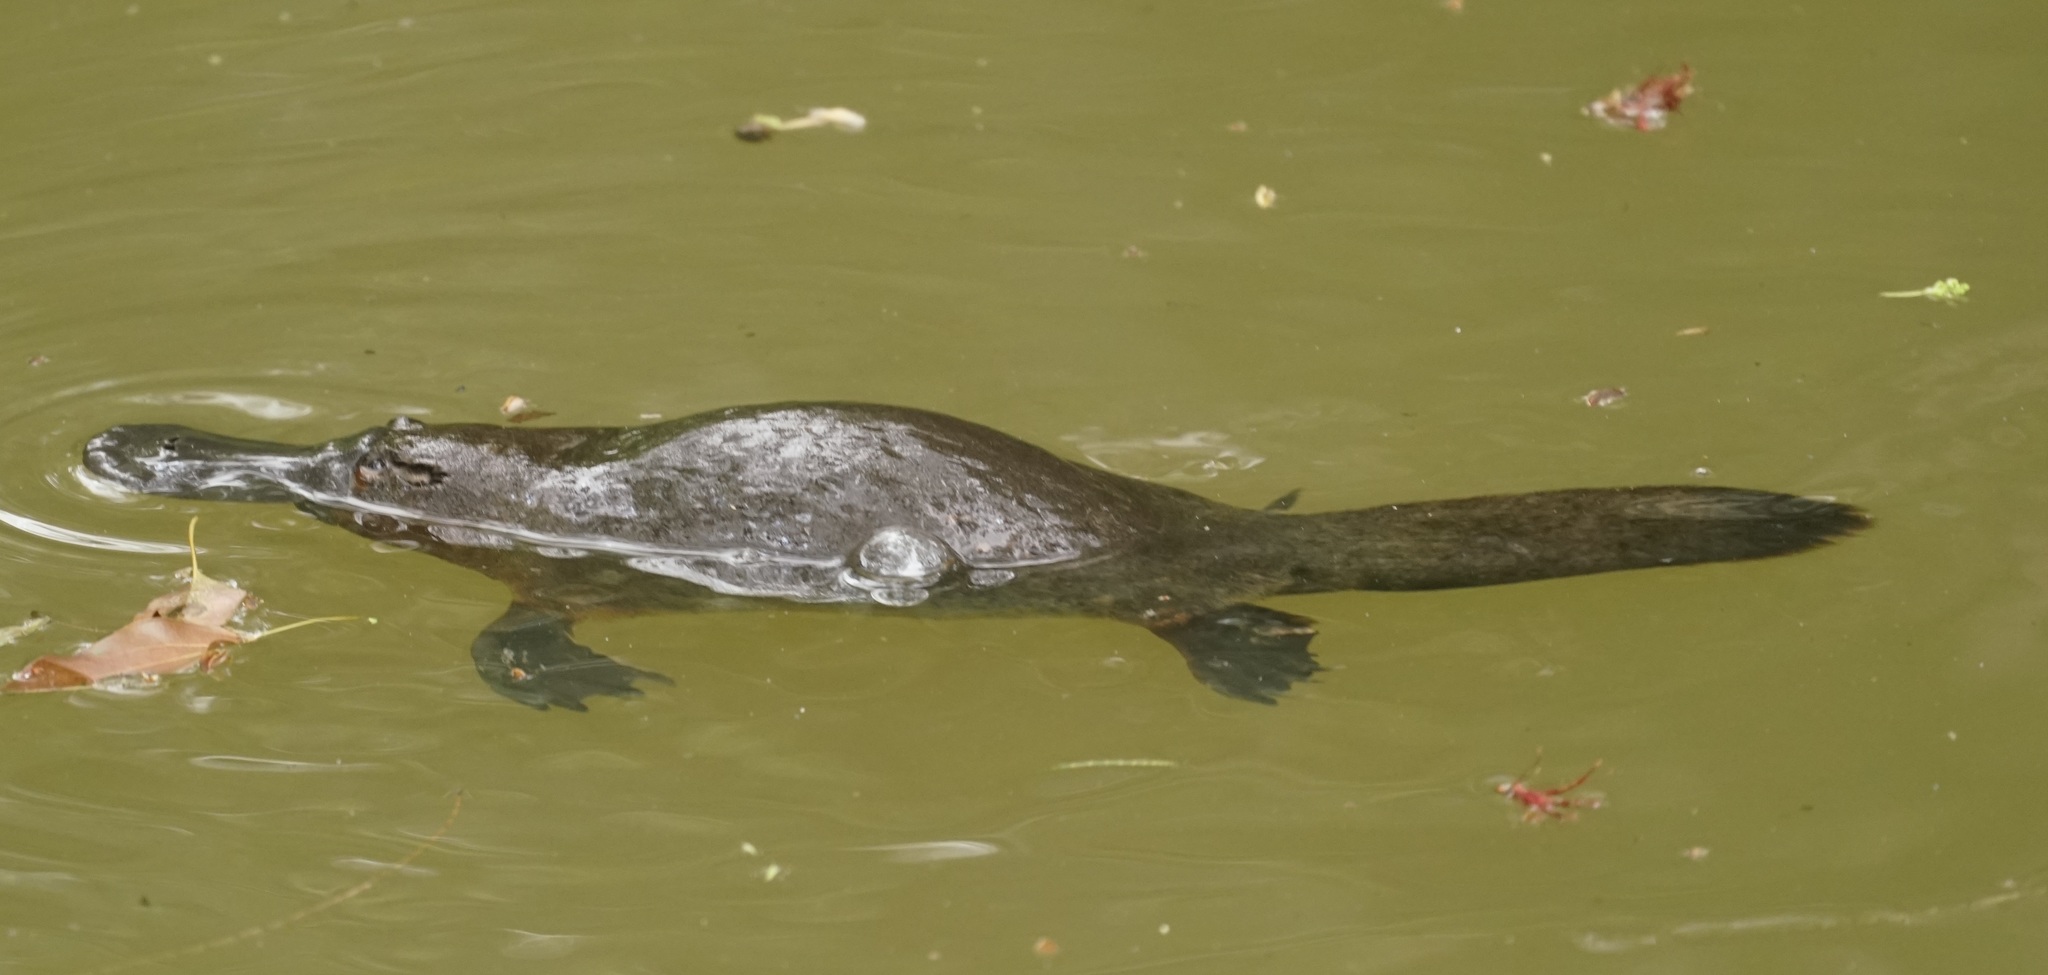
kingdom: Animalia
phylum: Chordata
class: Mammalia
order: Monotremata
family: Ornithorhynchidae
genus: Ornithorhynchus
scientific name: Ornithorhynchus anatinus
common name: Platypus
